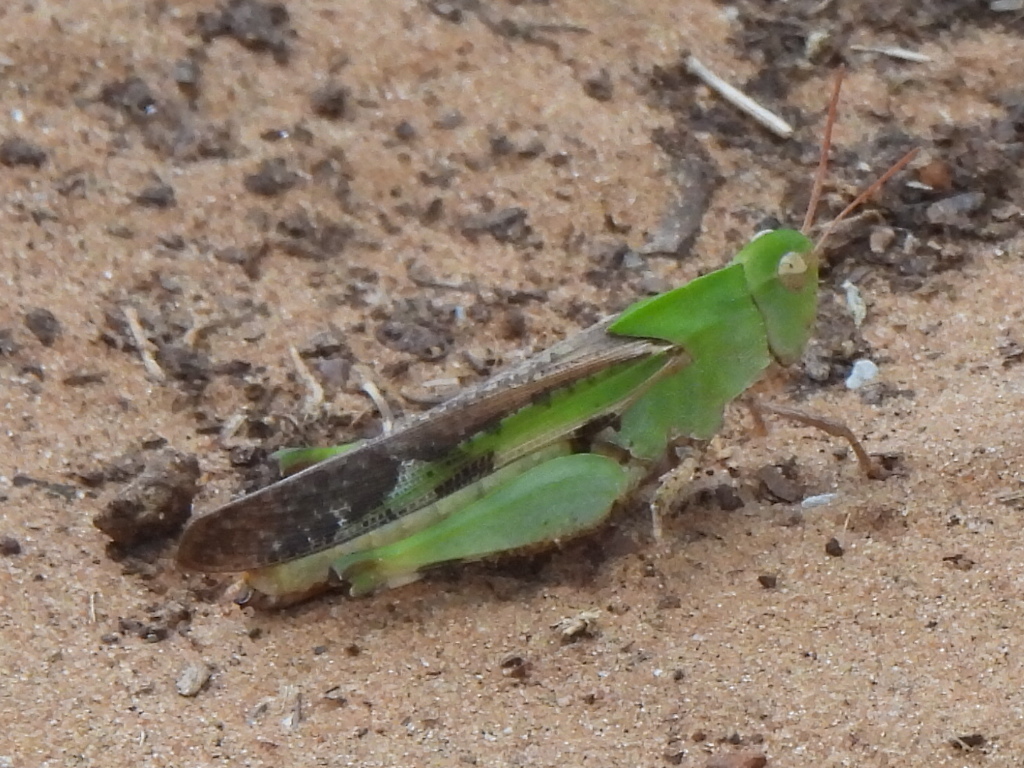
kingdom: Animalia
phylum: Arthropoda
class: Insecta
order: Orthoptera
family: Acrididae
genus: Chortophaga
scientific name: Chortophaga viridifasciata
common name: Green-striped grasshopper
